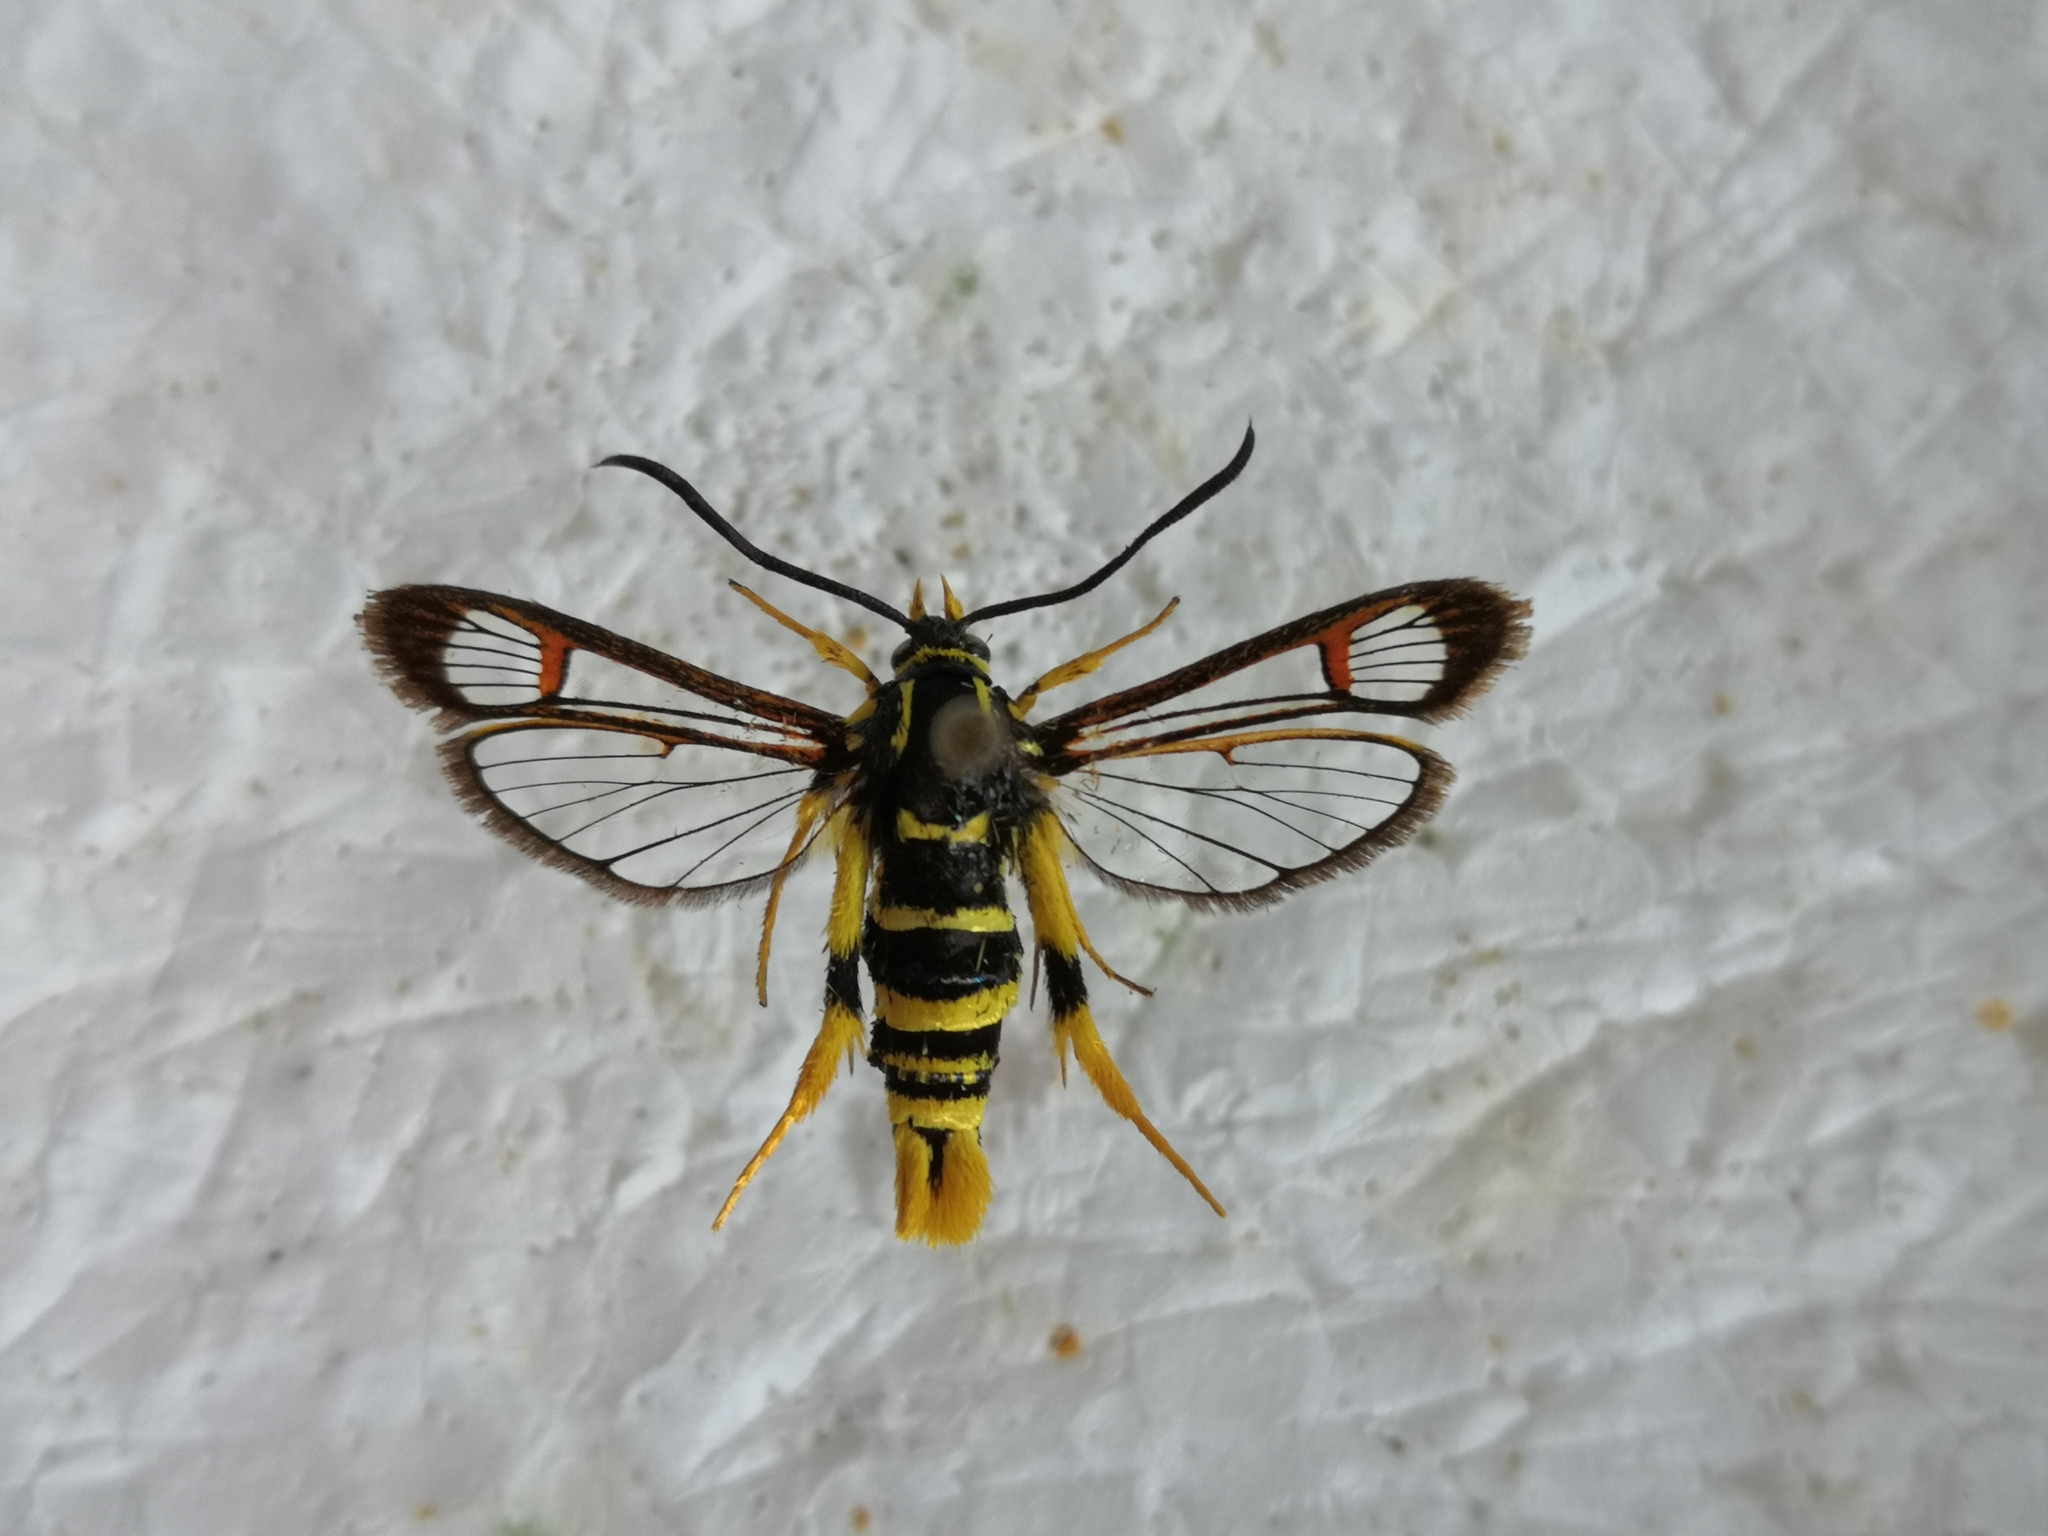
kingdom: Animalia
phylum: Arthropoda
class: Insecta
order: Lepidoptera
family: Sesiidae
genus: Synanthedon
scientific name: Synanthedon vespiformis
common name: Yellow-legged clearwing
